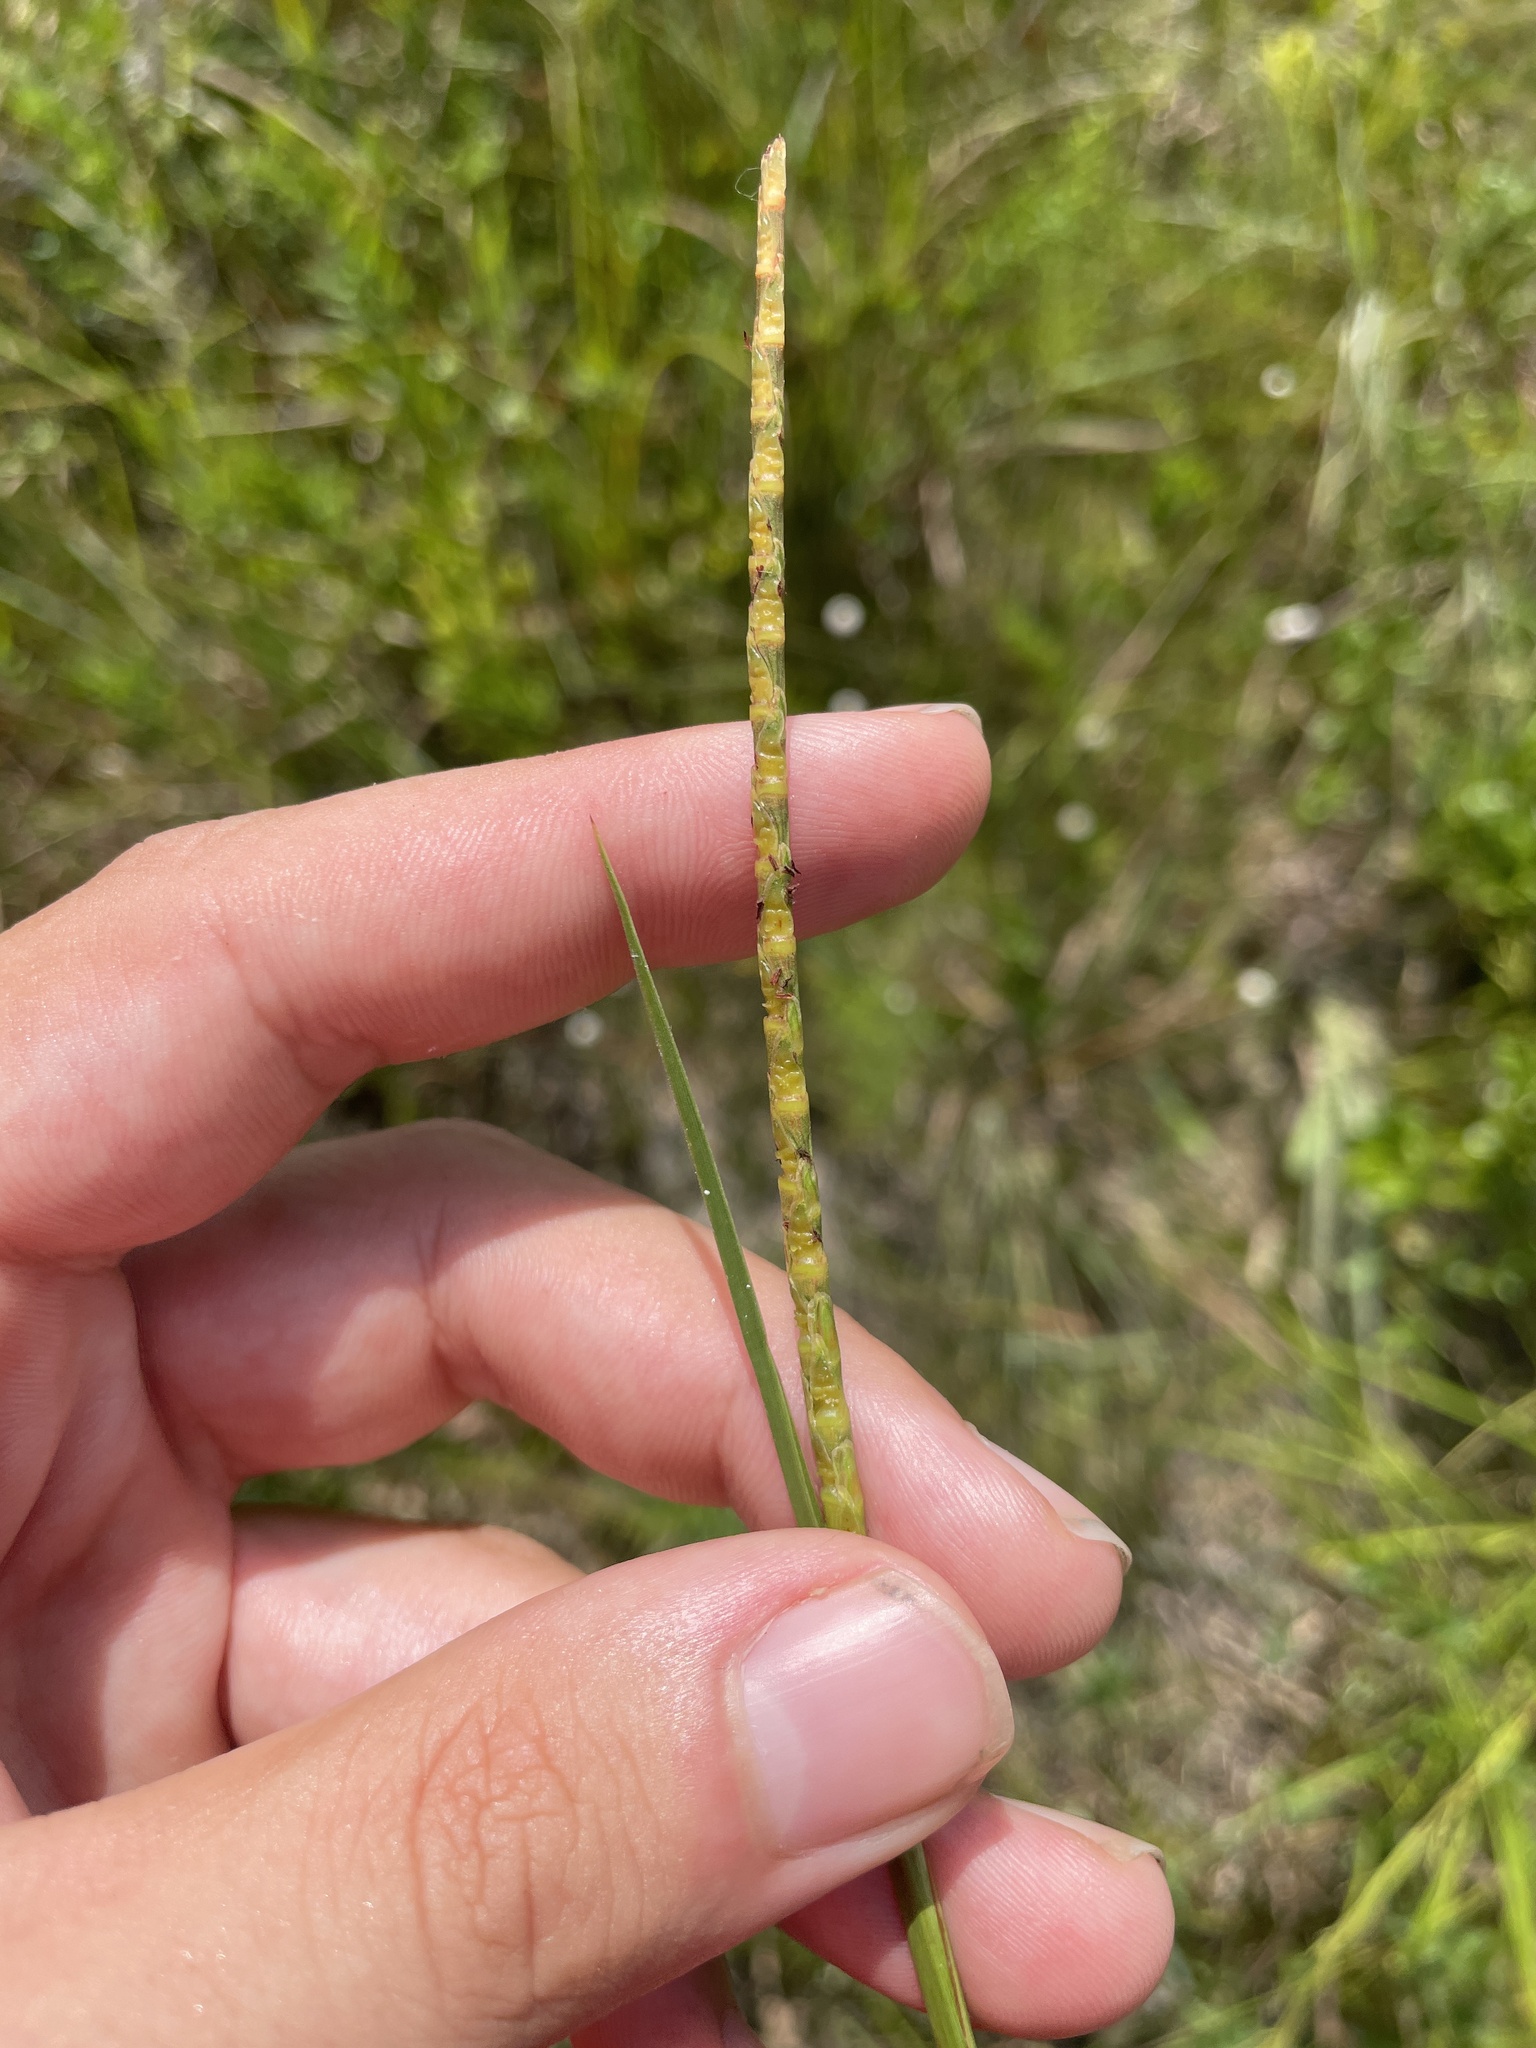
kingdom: Plantae
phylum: Tracheophyta
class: Liliopsida
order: Poales
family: Poaceae
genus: Rottboellia
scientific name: Rottboellia rugosa
